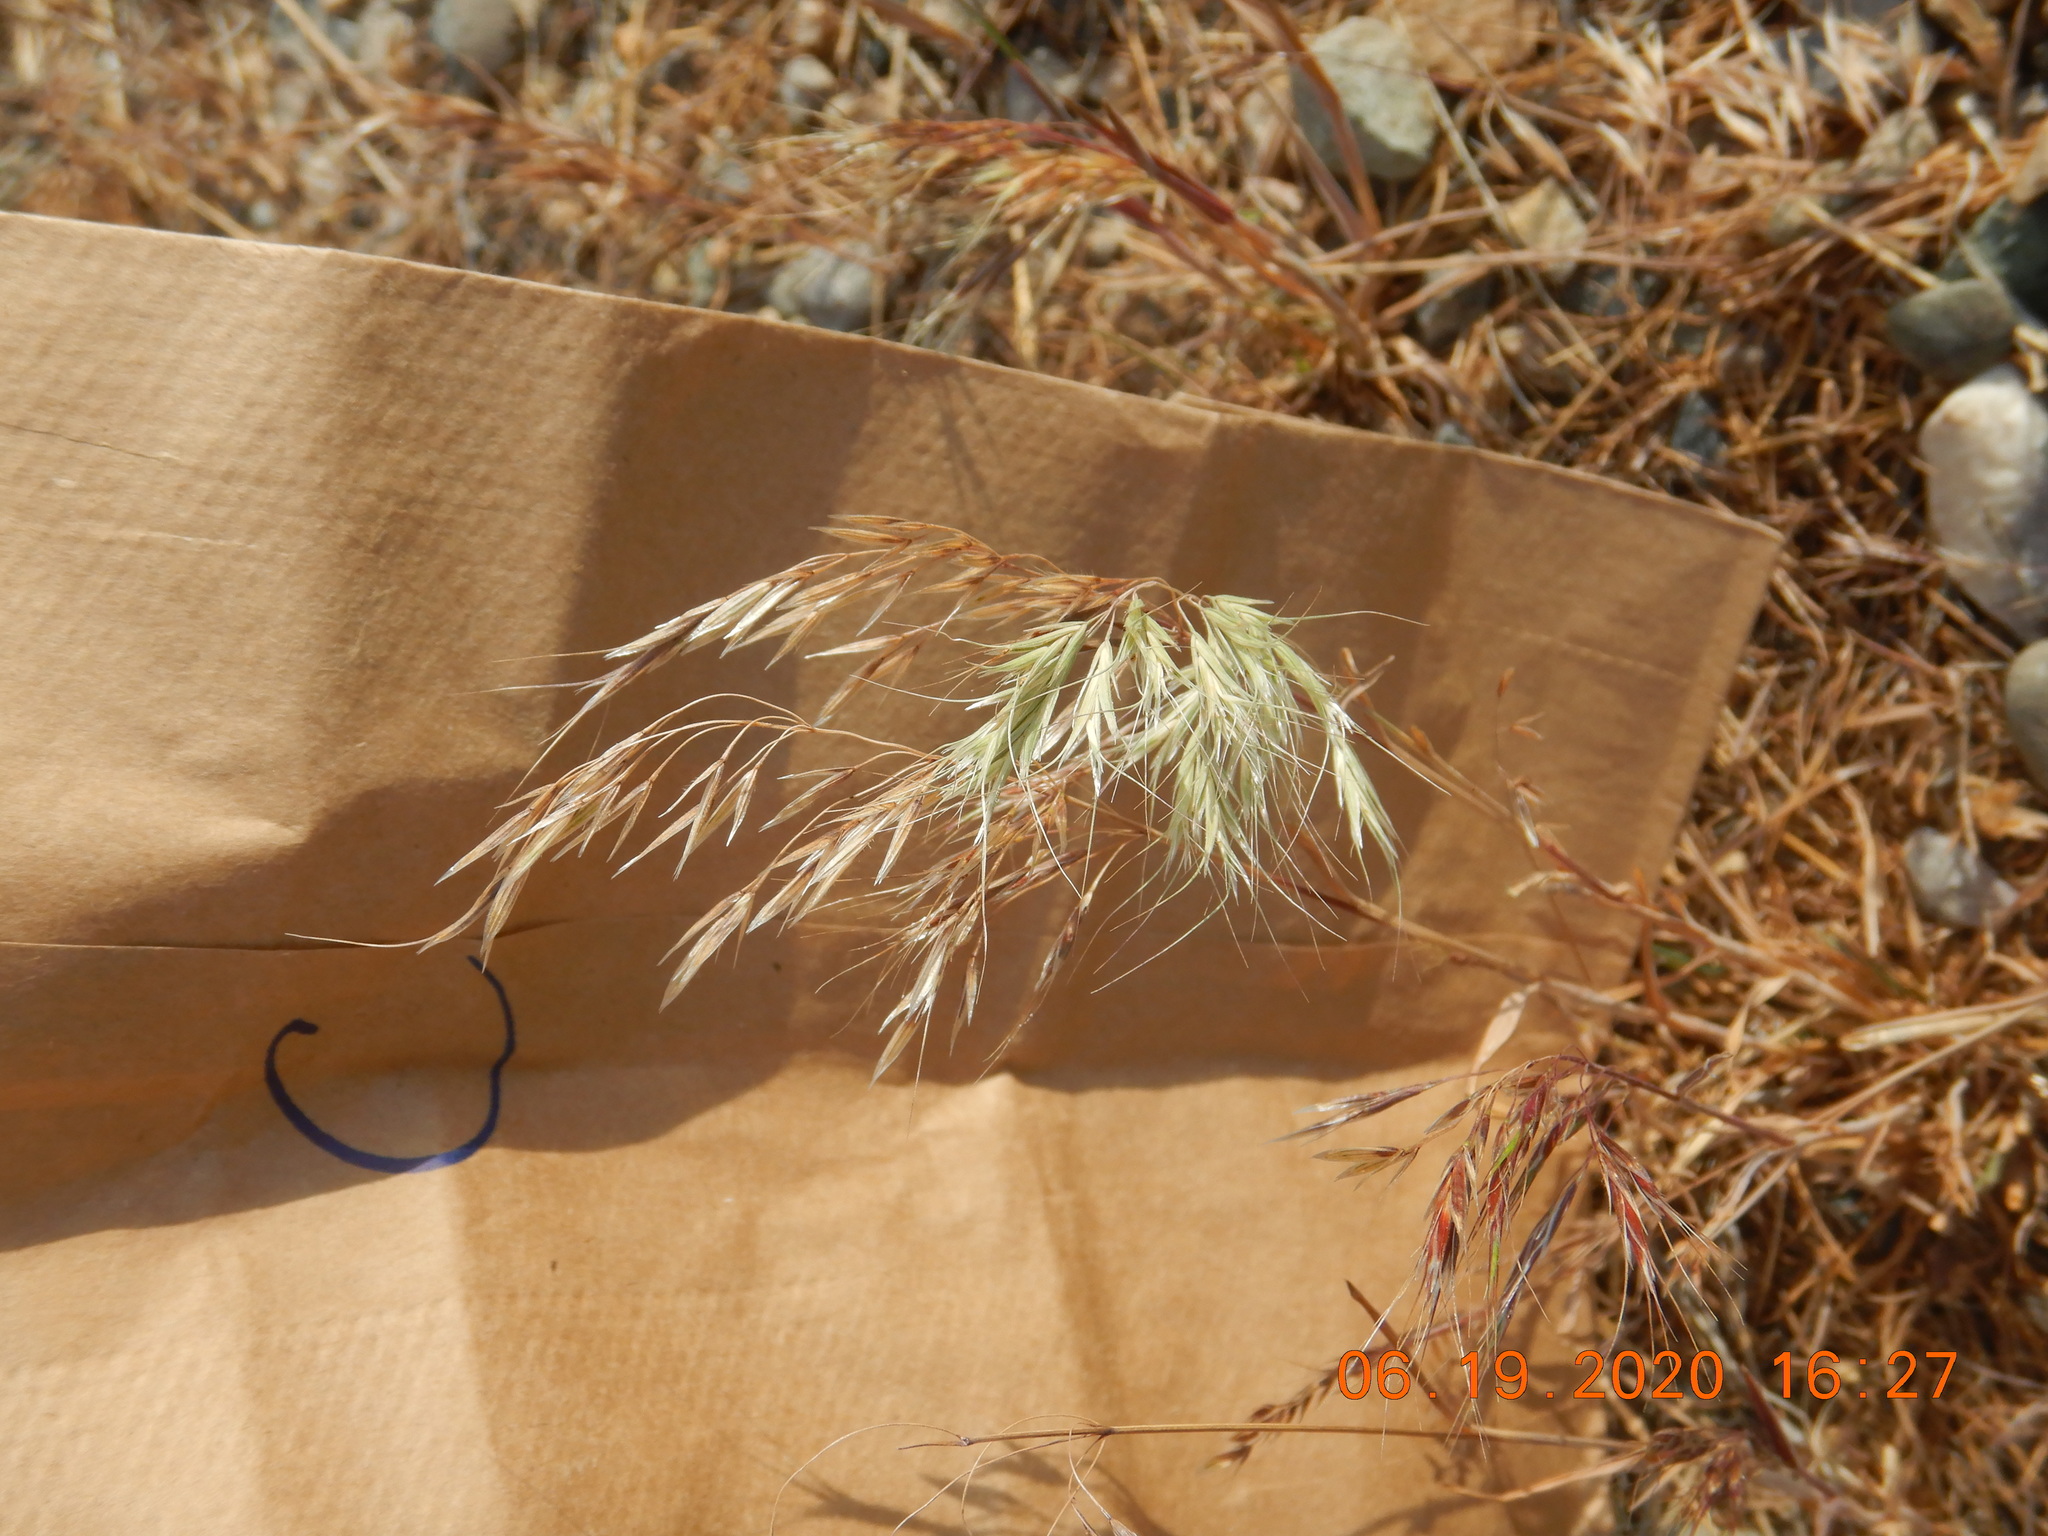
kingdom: Plantae
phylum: Tracheophyta
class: Liliopsida
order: Poales
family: Poaceae
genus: Bromus
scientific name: Bromus tectorum
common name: Cheatgrass
